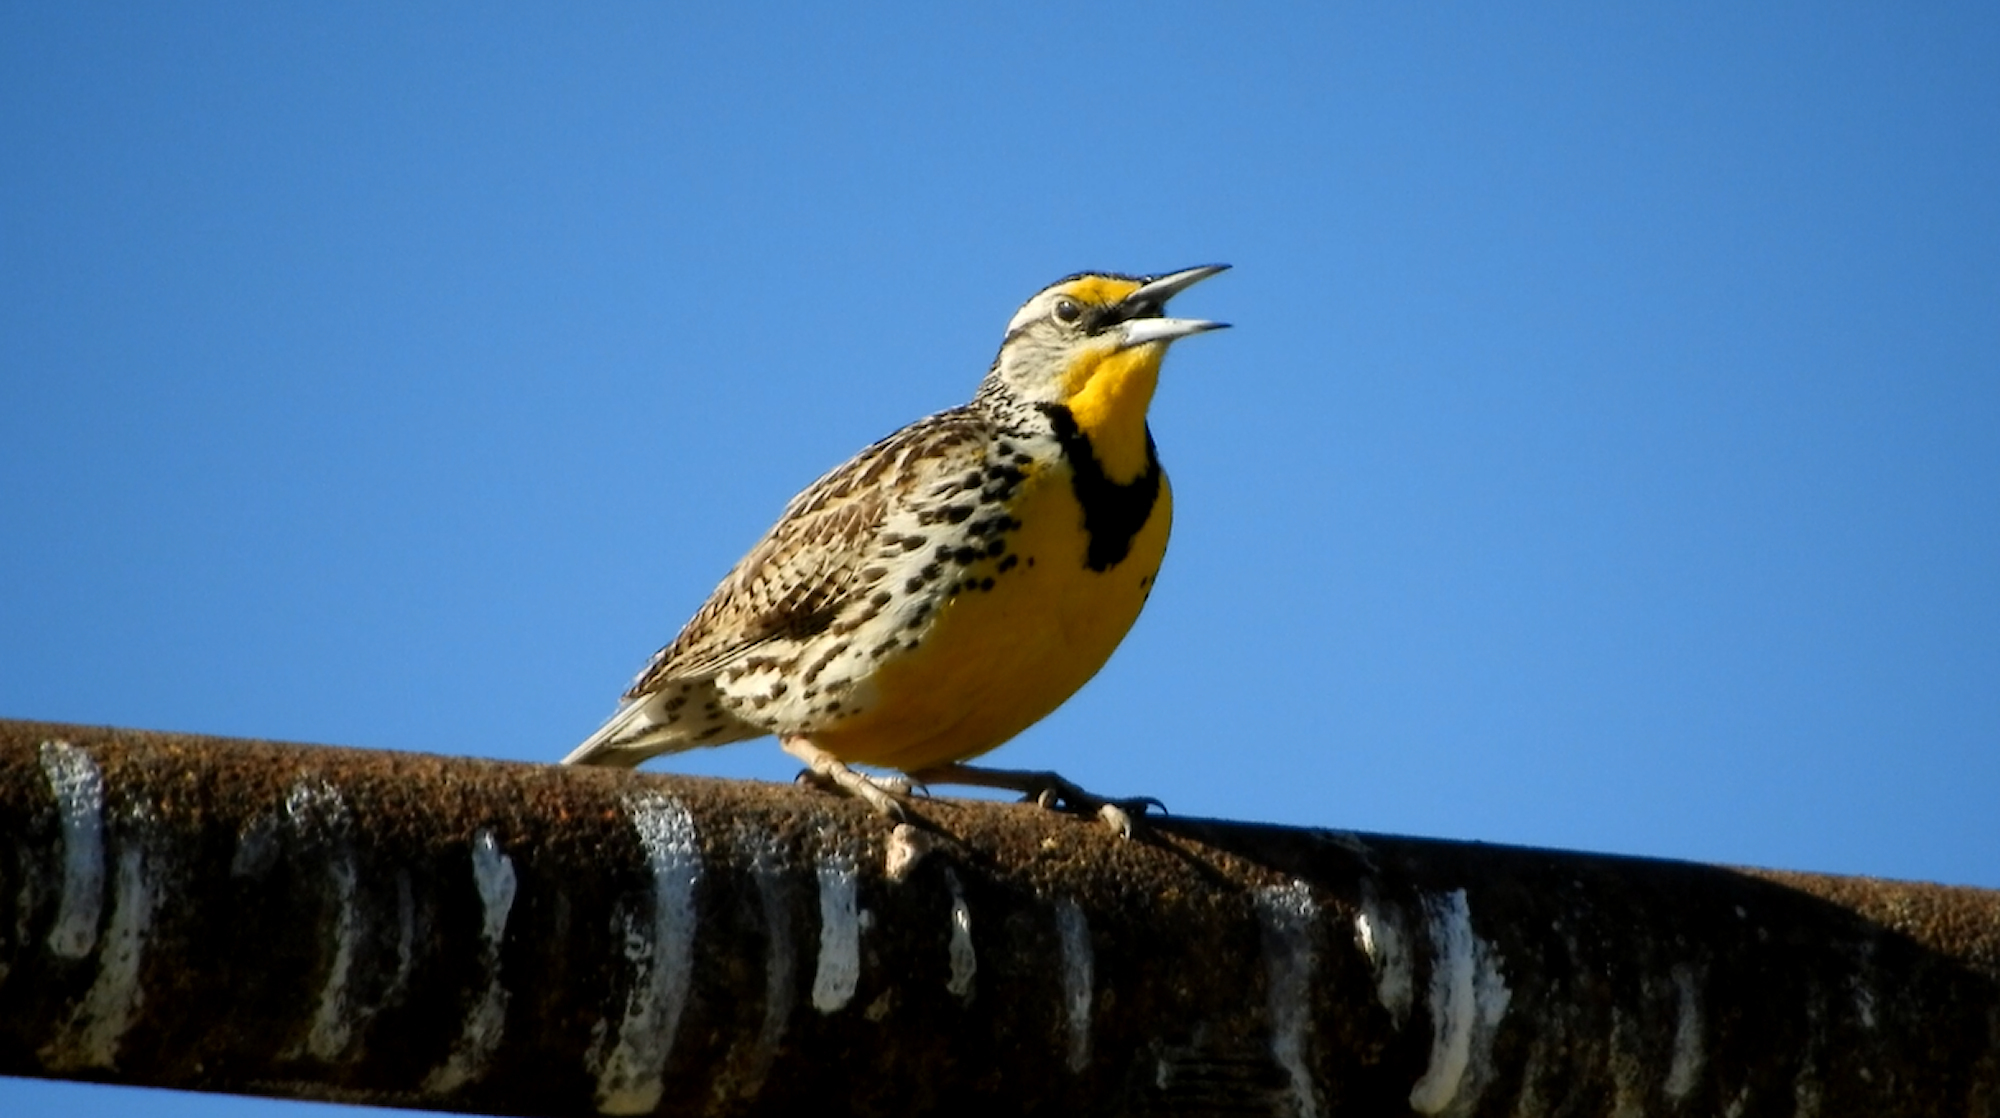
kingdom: Animalia
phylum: Chordata
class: Aves
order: Passeriformes
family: Icteridae
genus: Sturnella
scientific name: Sturnella neglecta
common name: Western meadowlark
